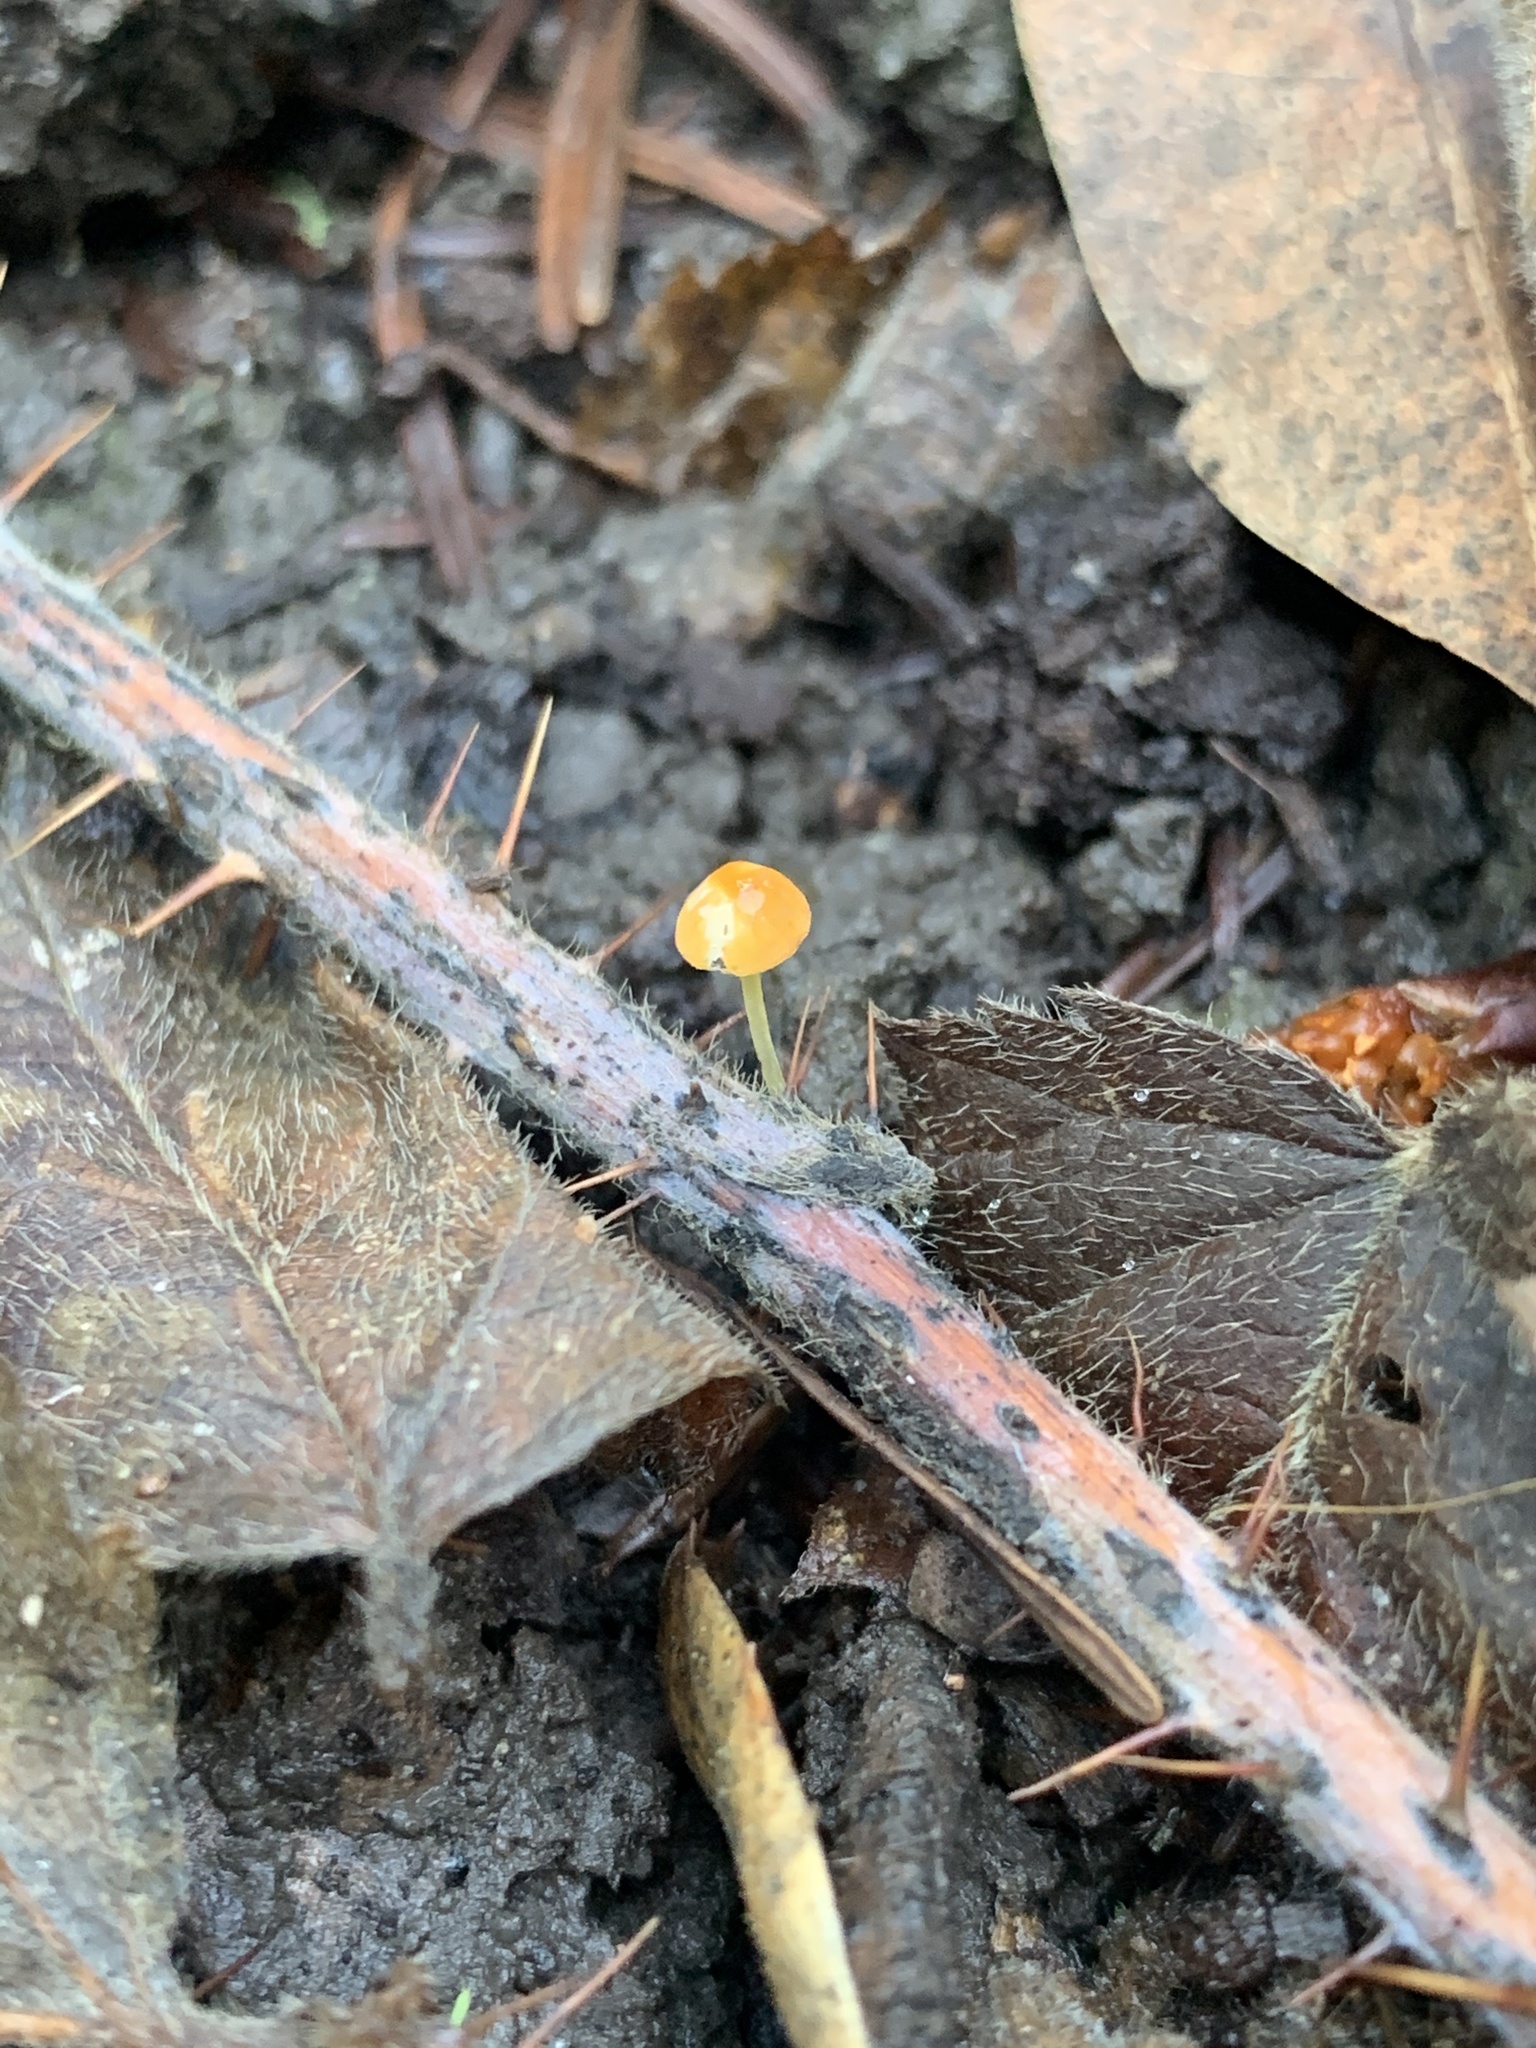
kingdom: Fungi
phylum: Basidiomycota
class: Agaricomycetes
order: Agaricales
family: Mycenaceae
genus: Mycena
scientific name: Mycena acicula
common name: Orange bonnet
